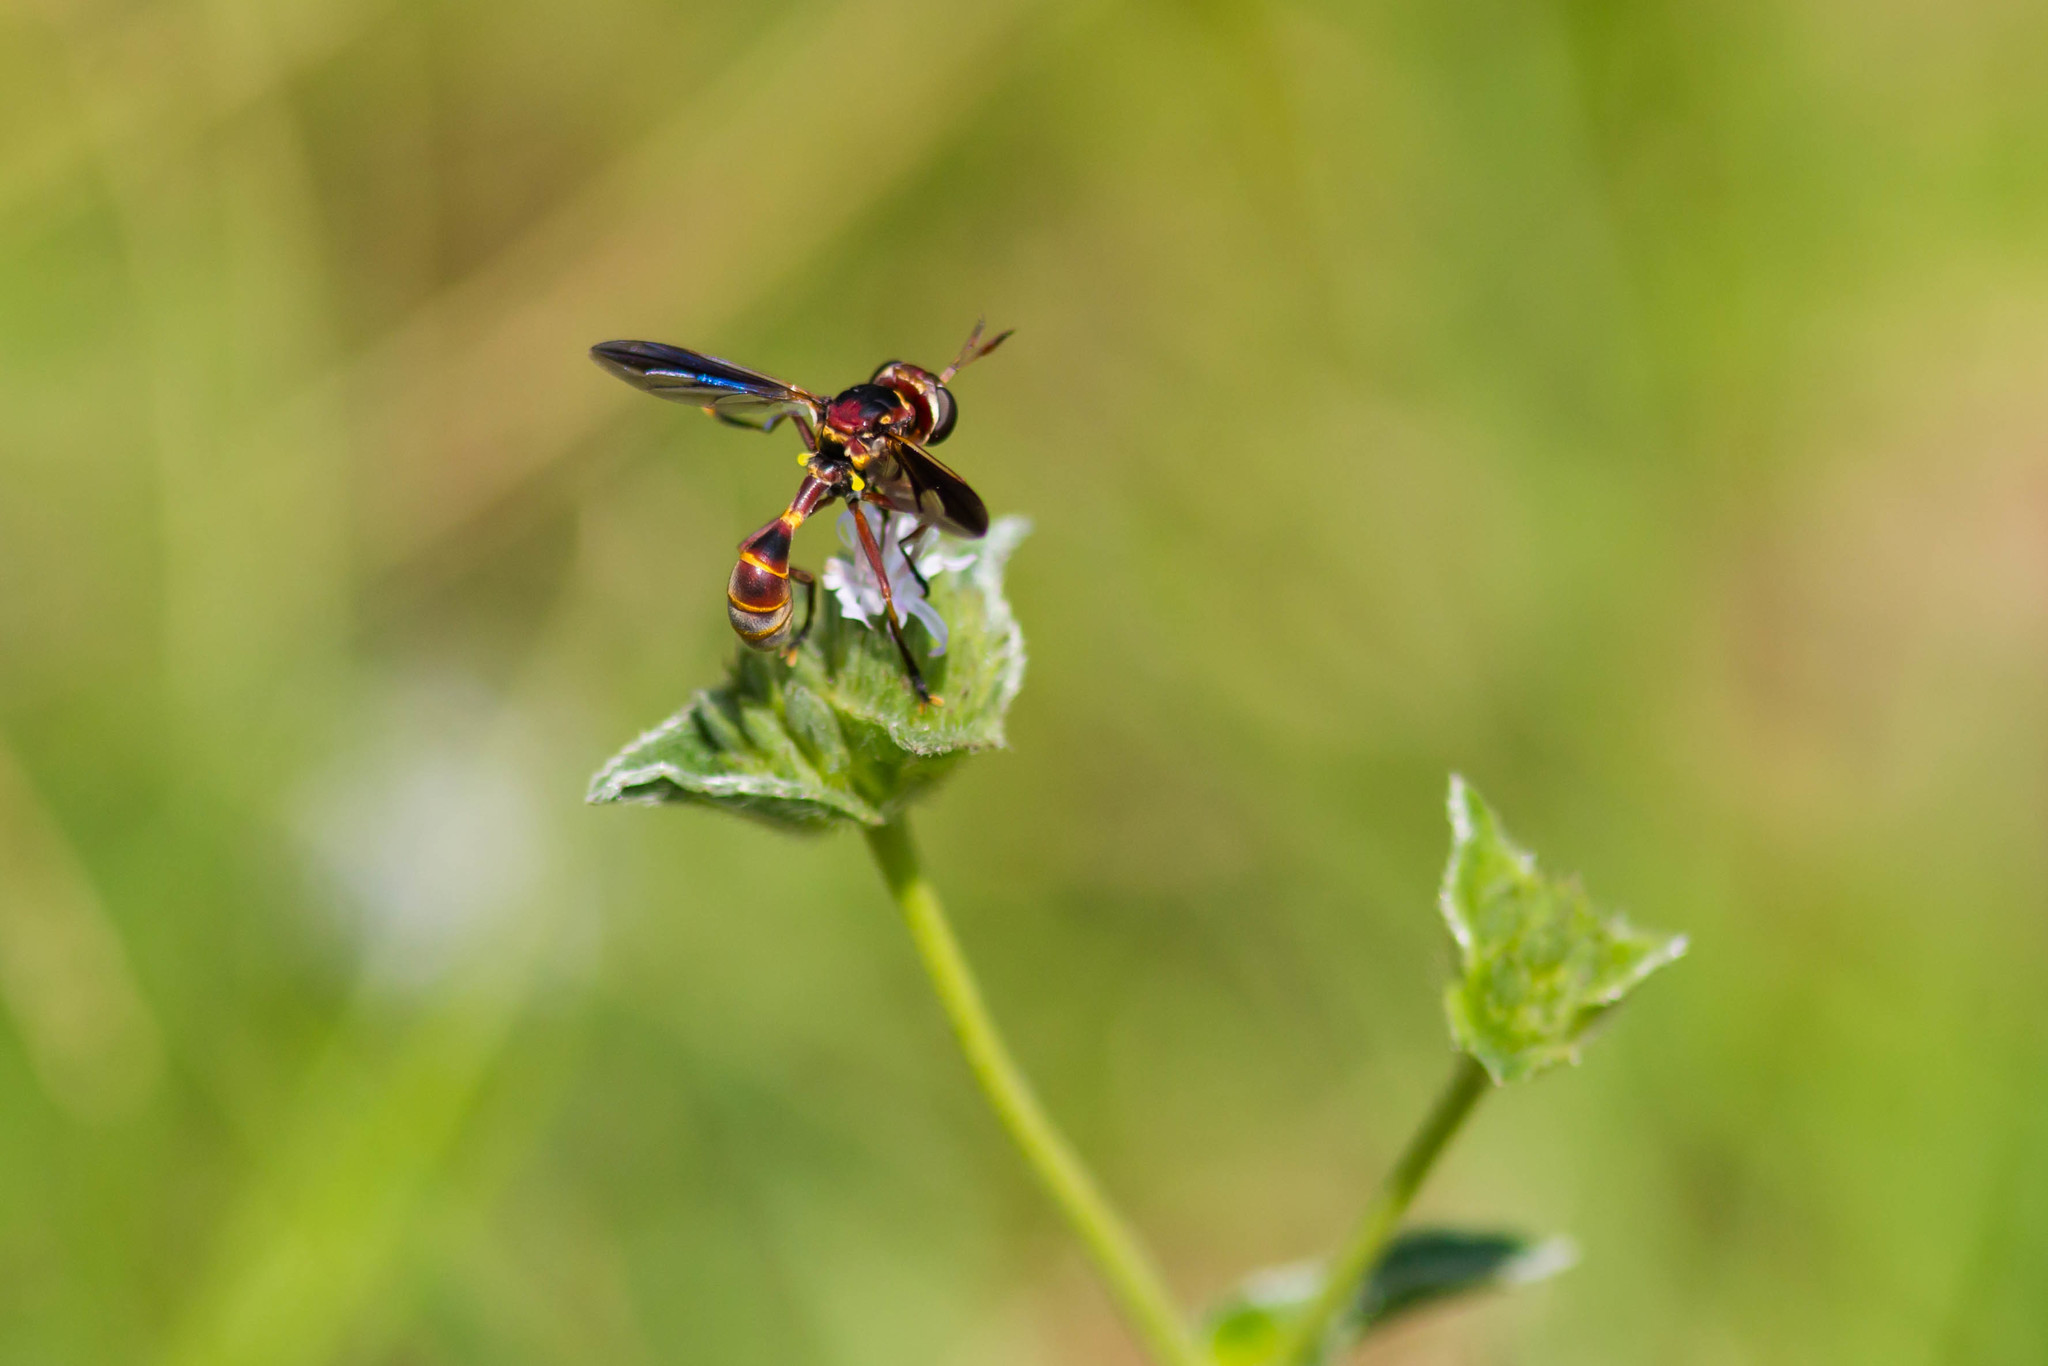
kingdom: Animalia
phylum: Arthropoda
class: Insecta
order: Diptera
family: Conopidae
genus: Physoconops
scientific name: Physoconops excisus
